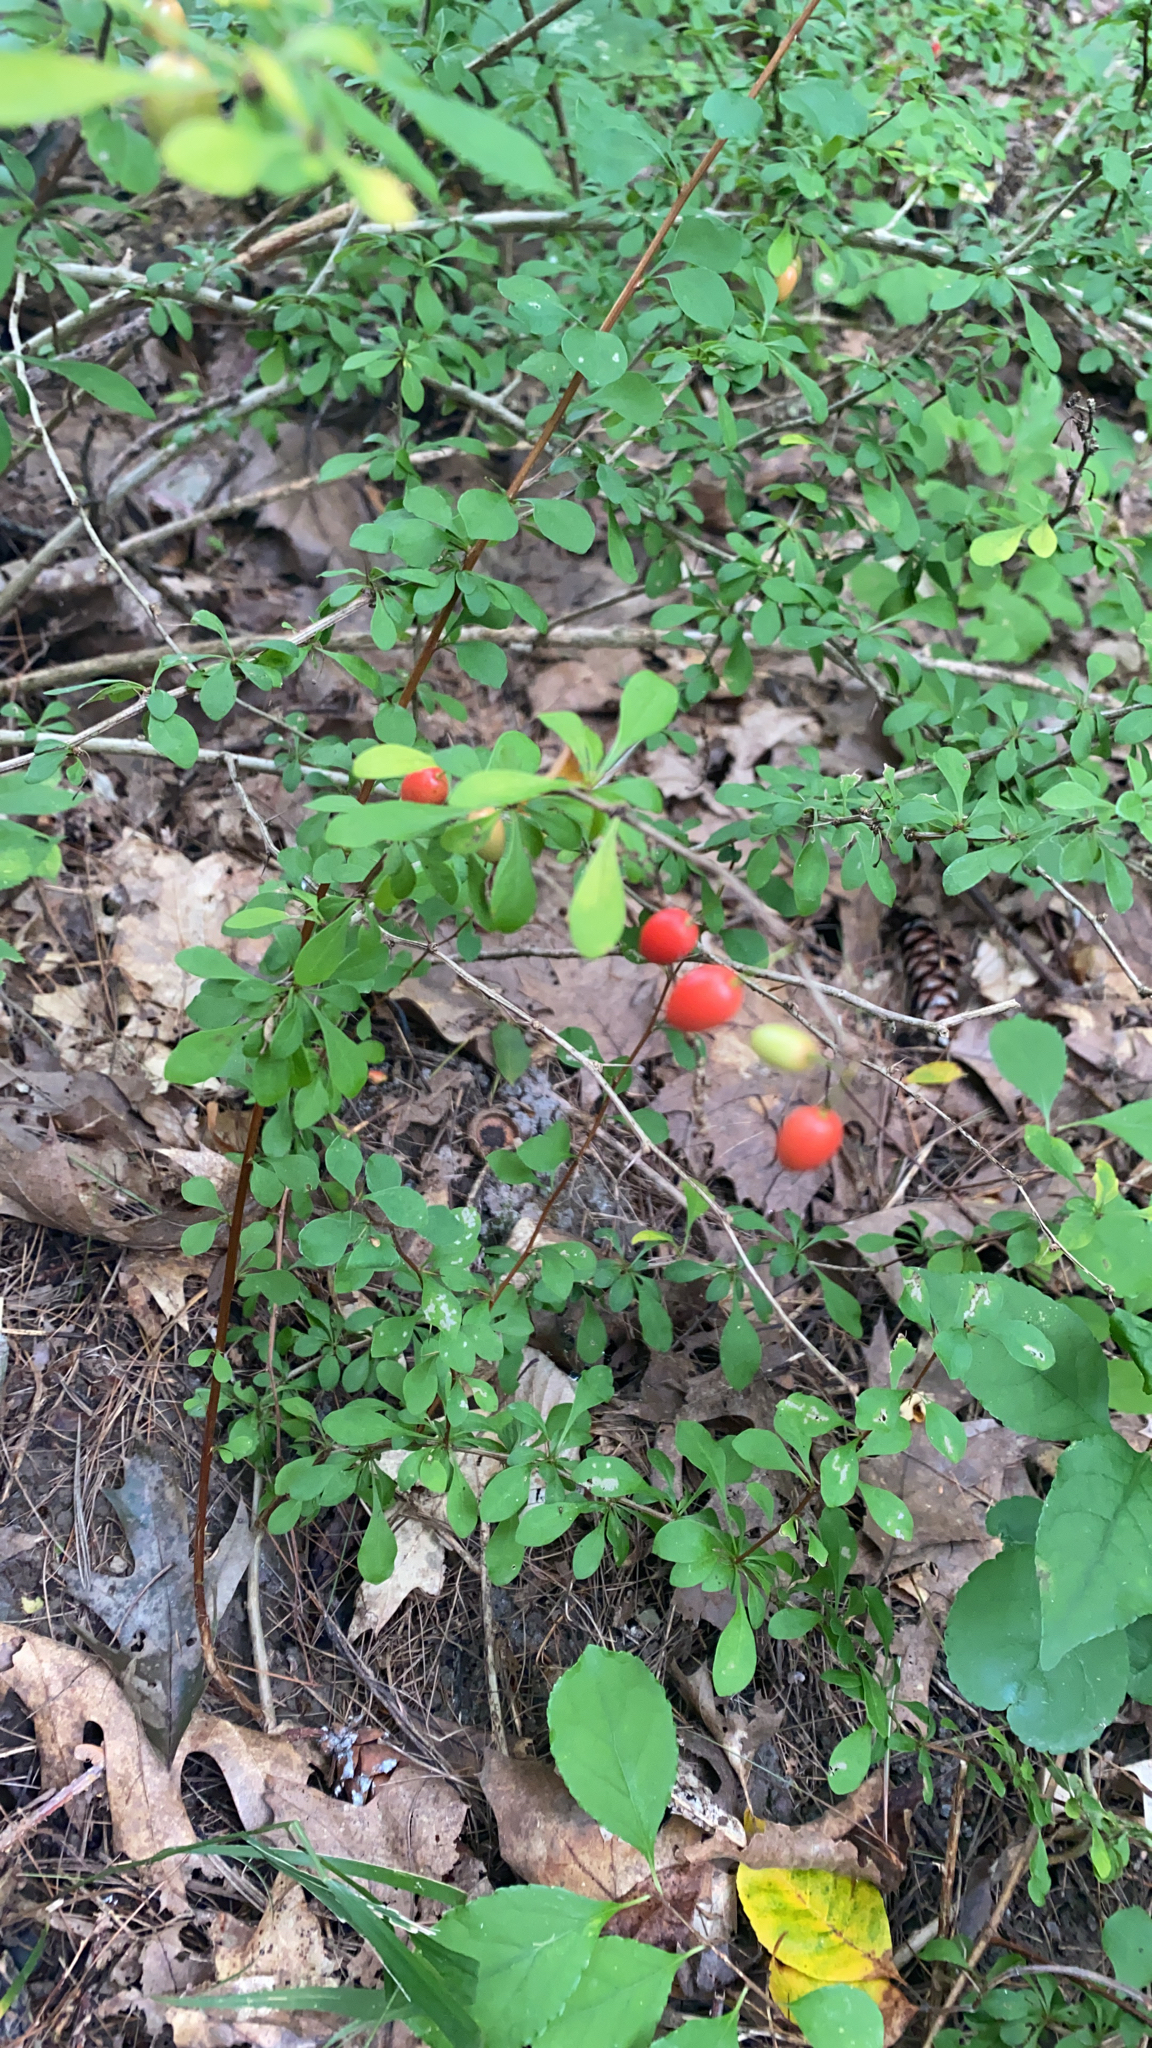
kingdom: Plantae
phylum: Tracheophyta
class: Magnoliopsida
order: Ranunculales
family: Berberidaceae
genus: Berberis
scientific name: Berberis thunbergii
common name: Japanese barberry
